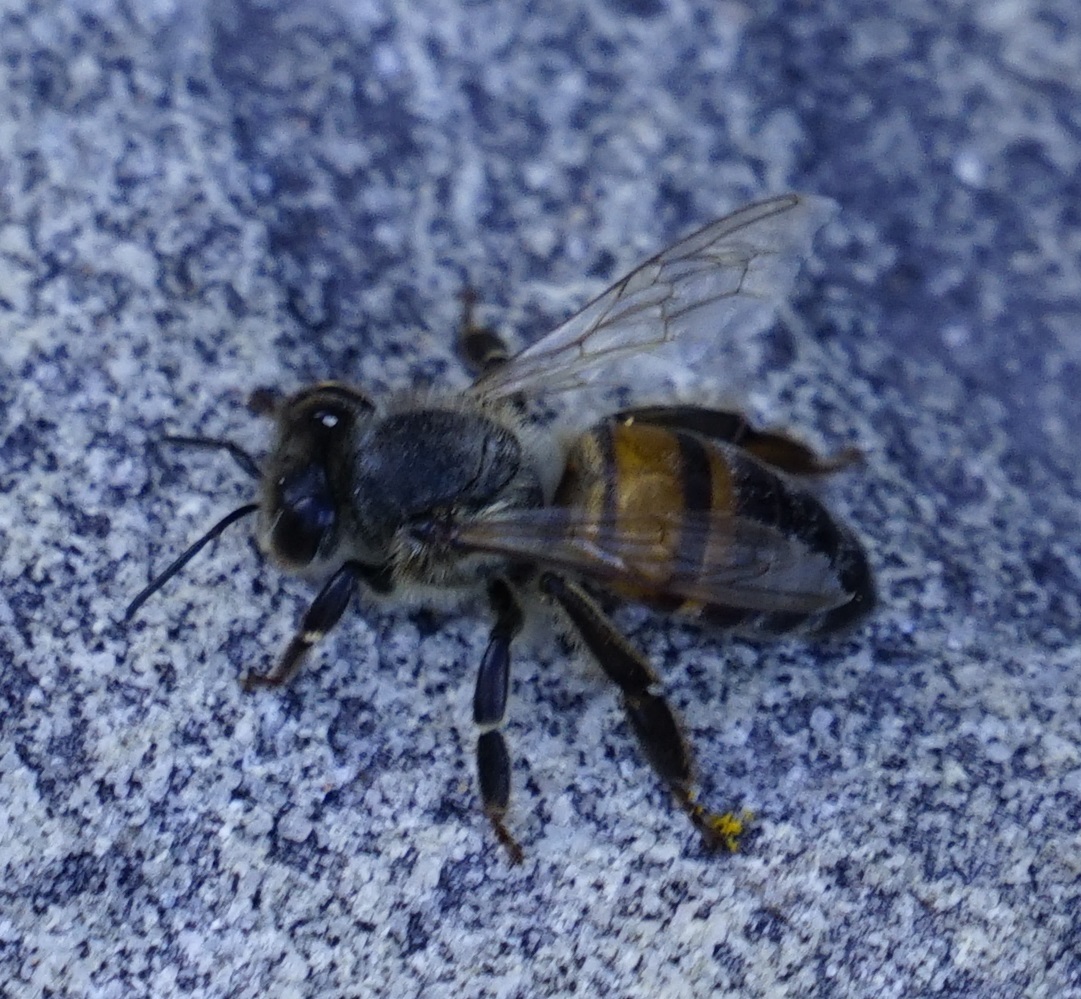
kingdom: Animalia
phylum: Arthropoda
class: Insecta
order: Hymenoptera
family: Apidae
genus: Apis
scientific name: Apis mellifera
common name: Honey bee
